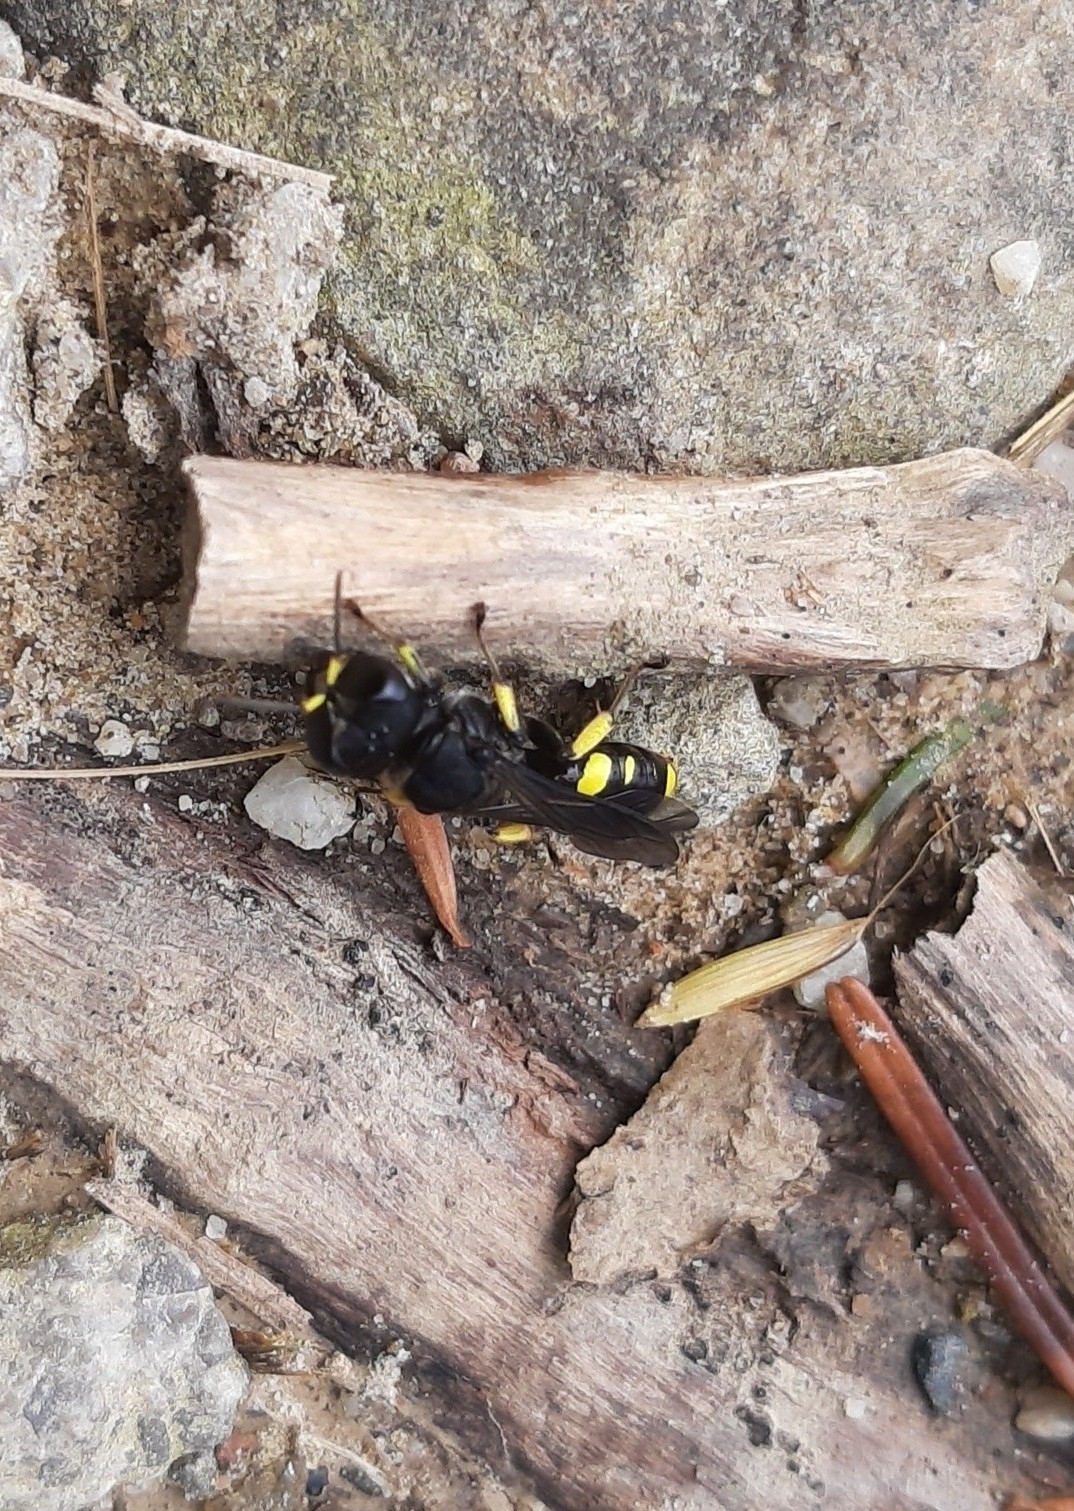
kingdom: Animalia
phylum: Arthropoda
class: Insecta
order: Hymenoptera
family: Crabronidae
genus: Ectemnius
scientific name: Ectemnius
